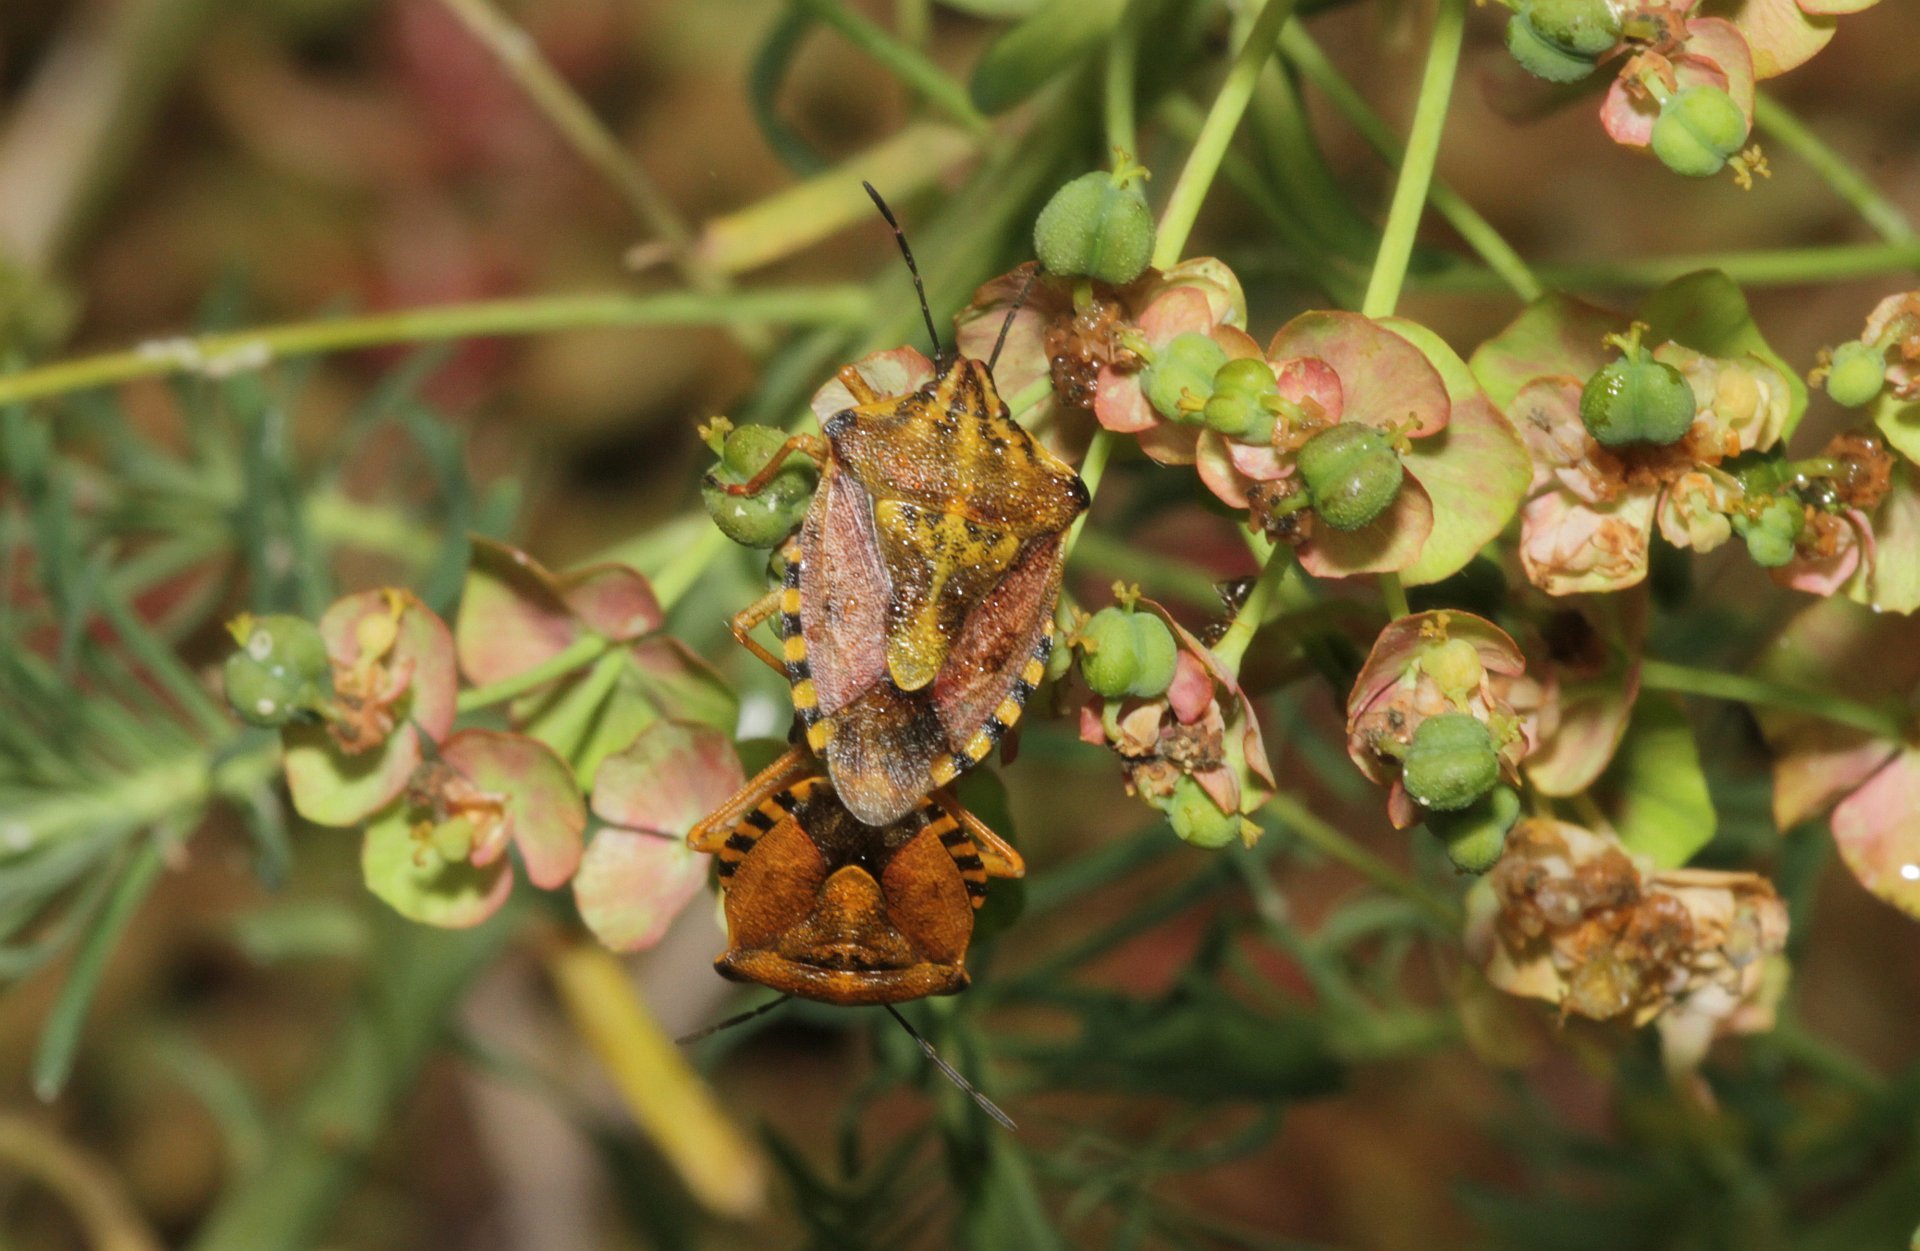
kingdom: Animalia
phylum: Arthropoda
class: Insecta
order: Hemiptera
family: Pentatomidae
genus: Carpocoris
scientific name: Carpocoris purpureipennis
